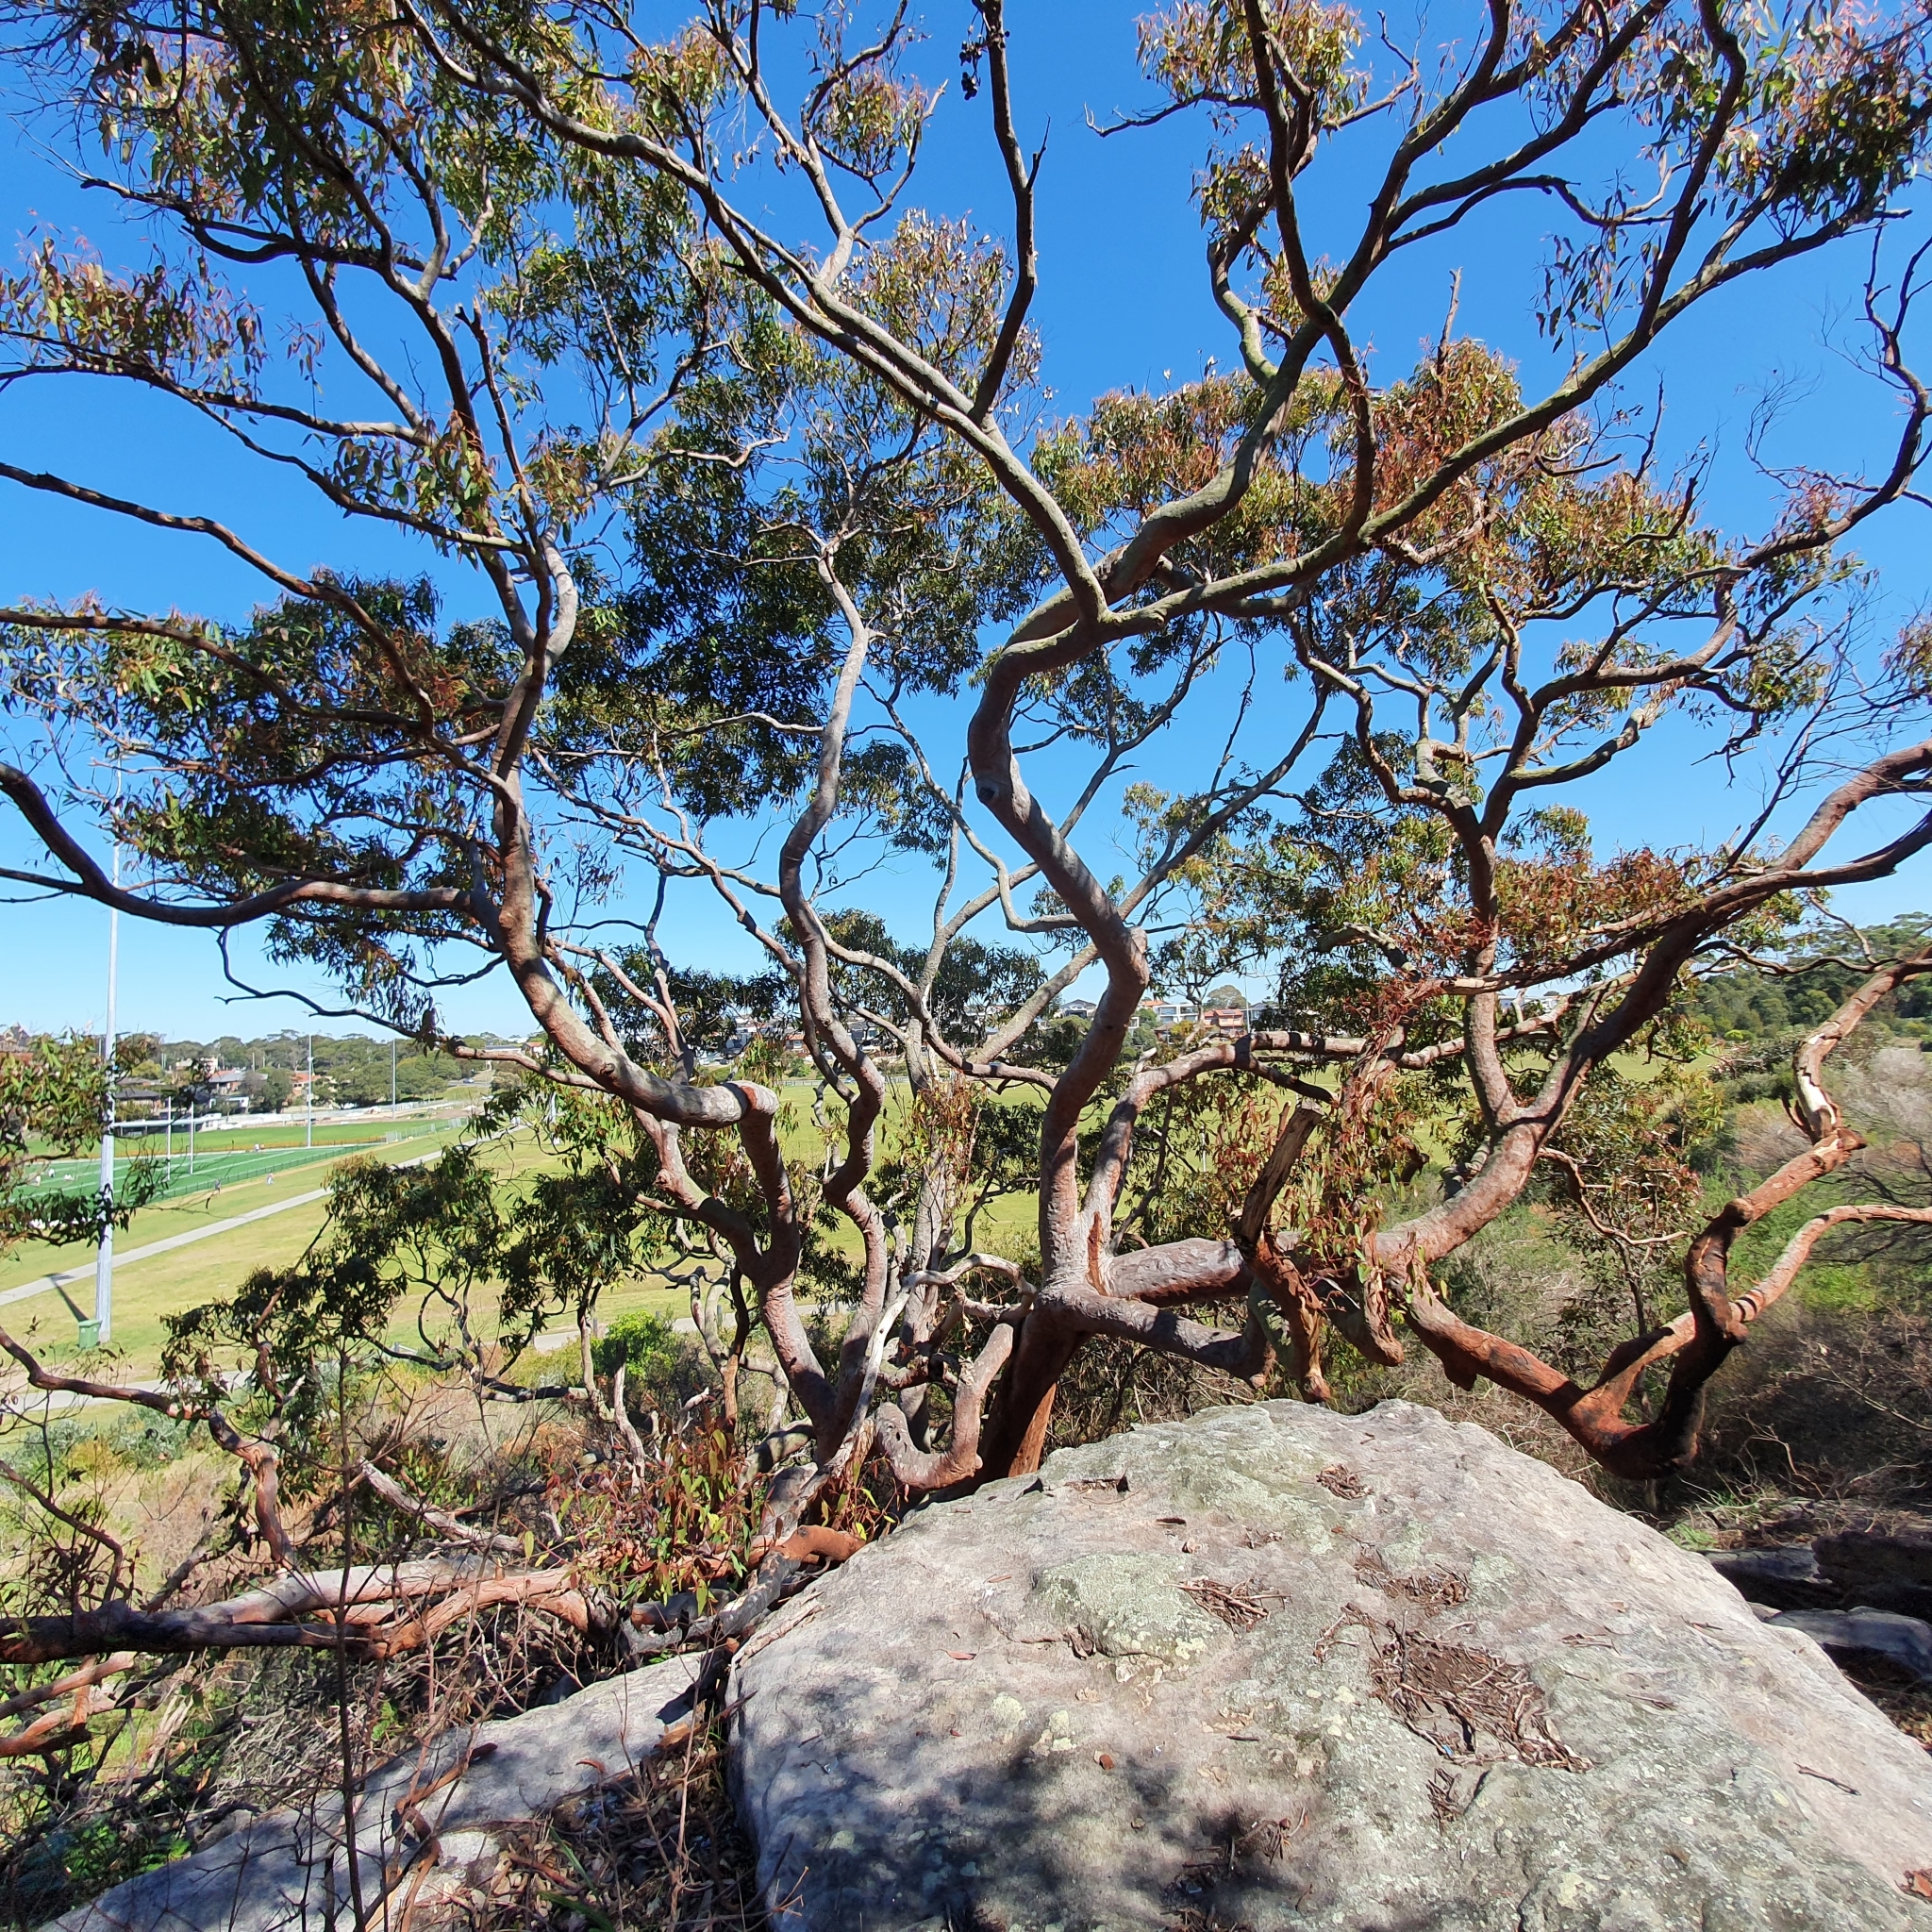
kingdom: Plantae
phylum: Tracheophyta
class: Magnoliopsida
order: Myrtales
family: Myrtaceae
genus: Angophora
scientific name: Angophora costata
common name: Gum myrtle
